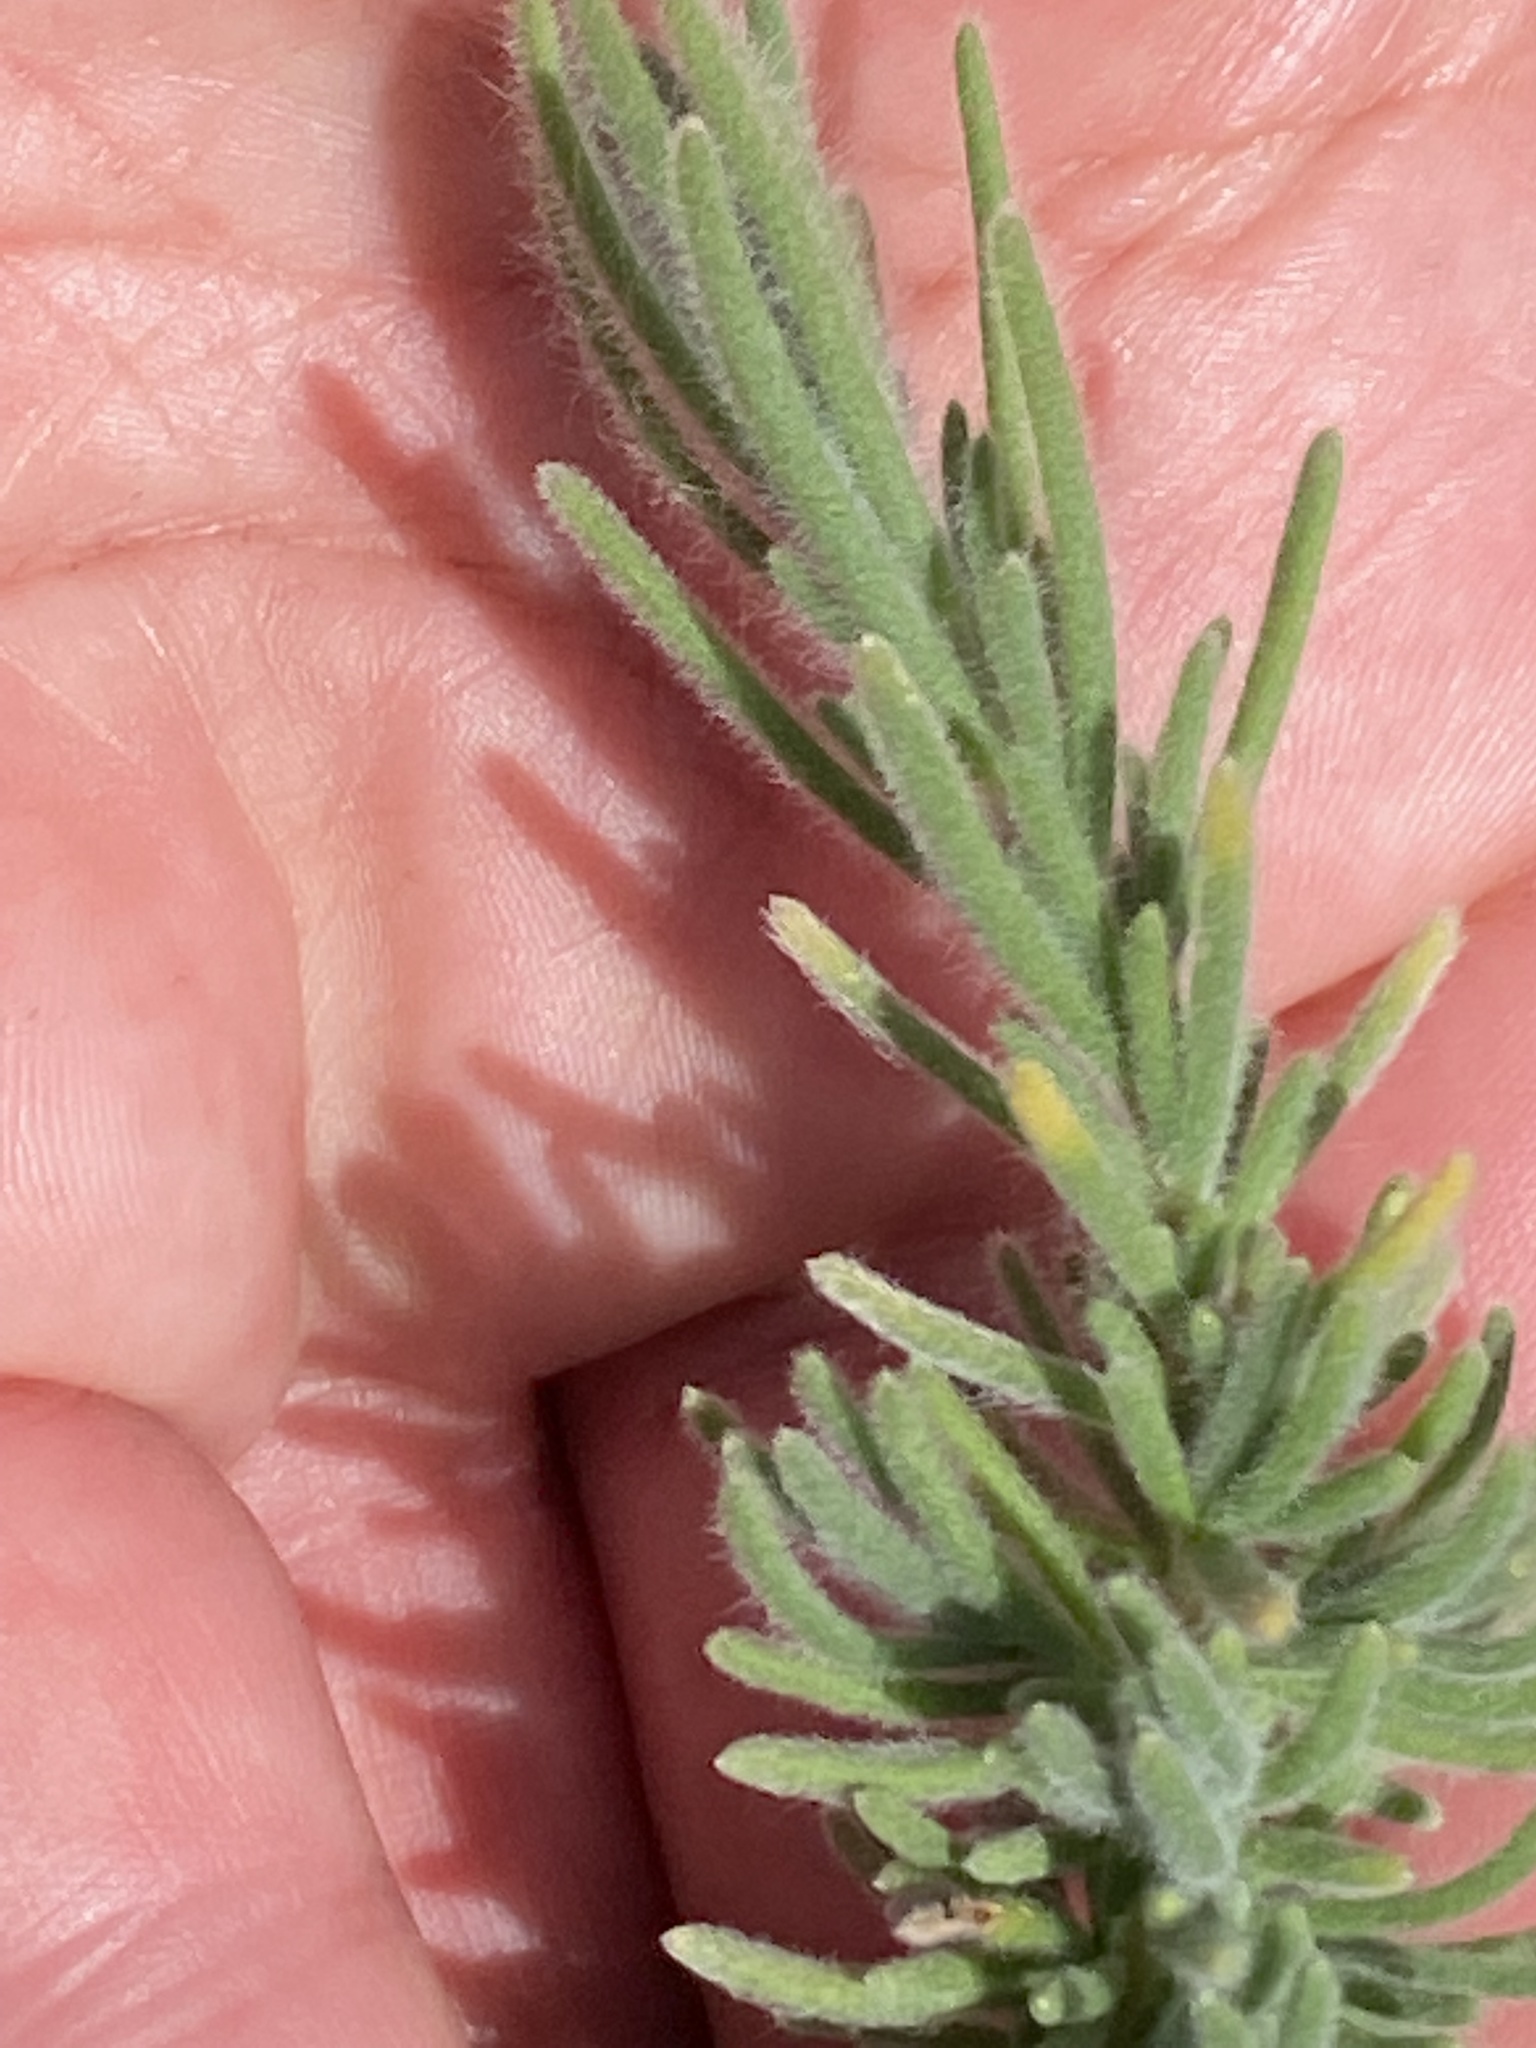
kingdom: Plantae
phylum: Tracheophyta
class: Magnoliopsida
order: Asterales
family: Campanulaceae
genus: Lobelia
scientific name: Lobelia tomentosa
